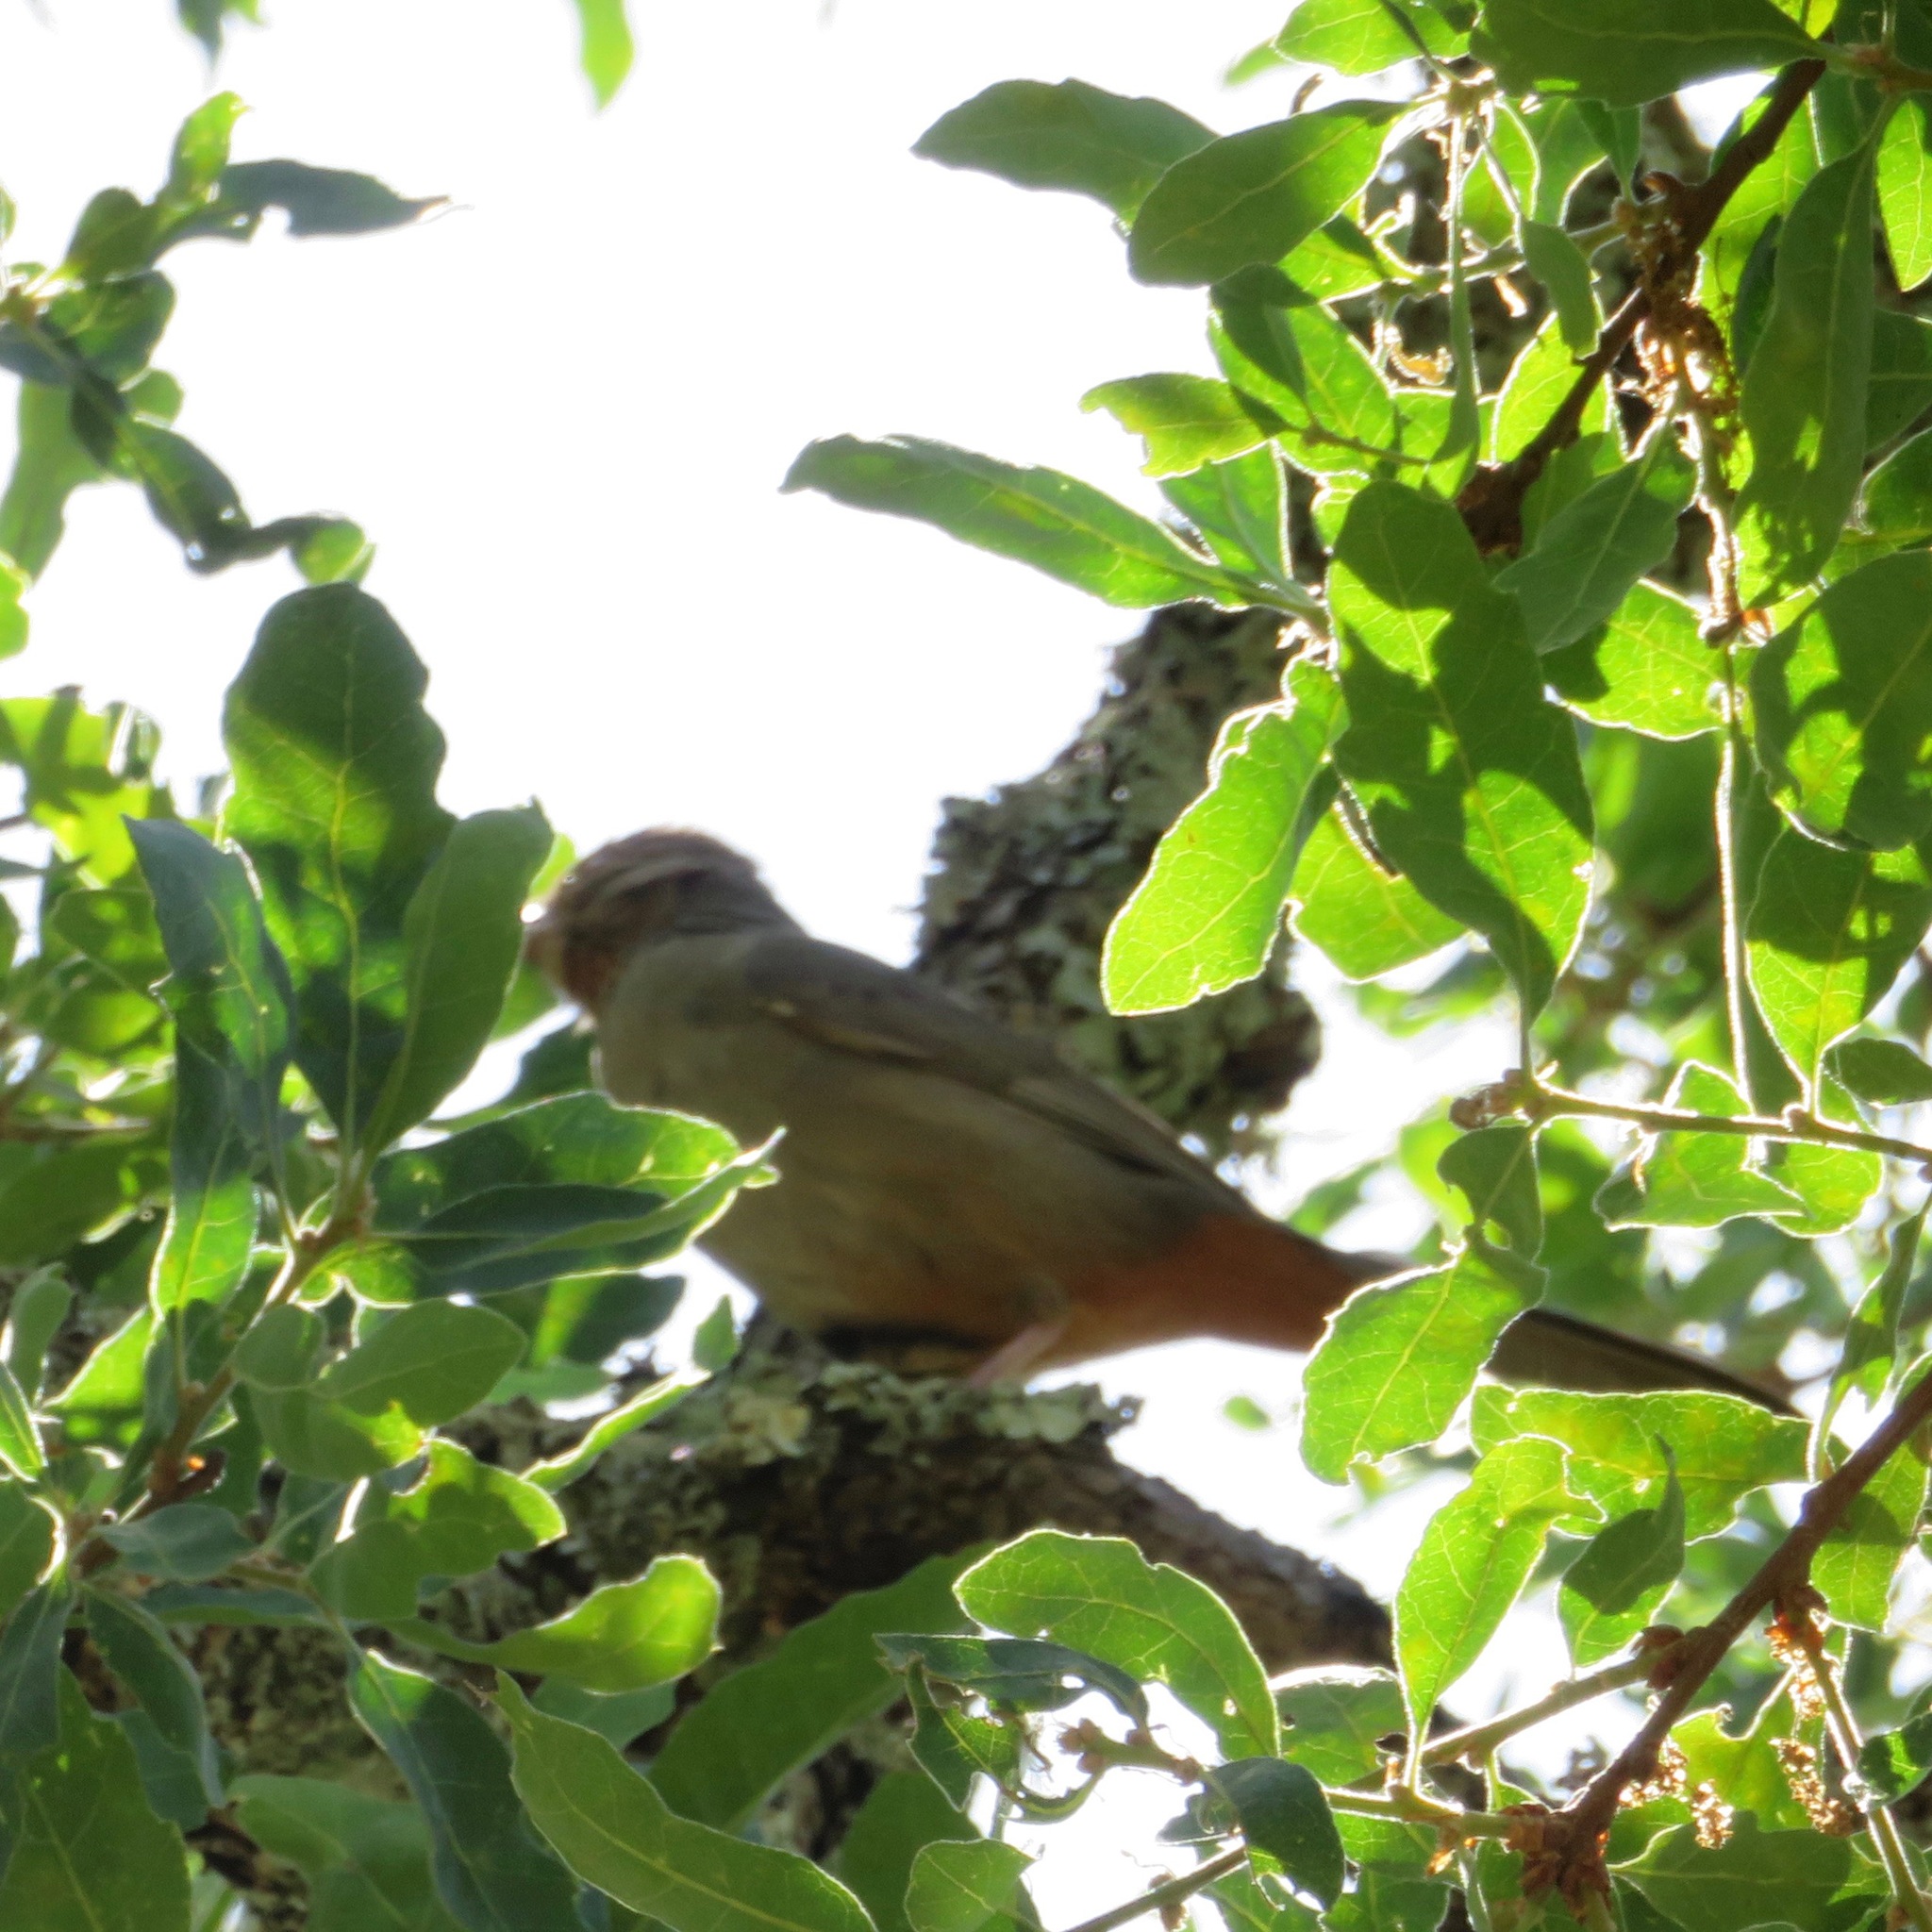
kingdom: Animalia
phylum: Chordata
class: Aves
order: Passeriformes
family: Passerellidae
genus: Melozone
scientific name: Melozone crissalis
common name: California towhee
